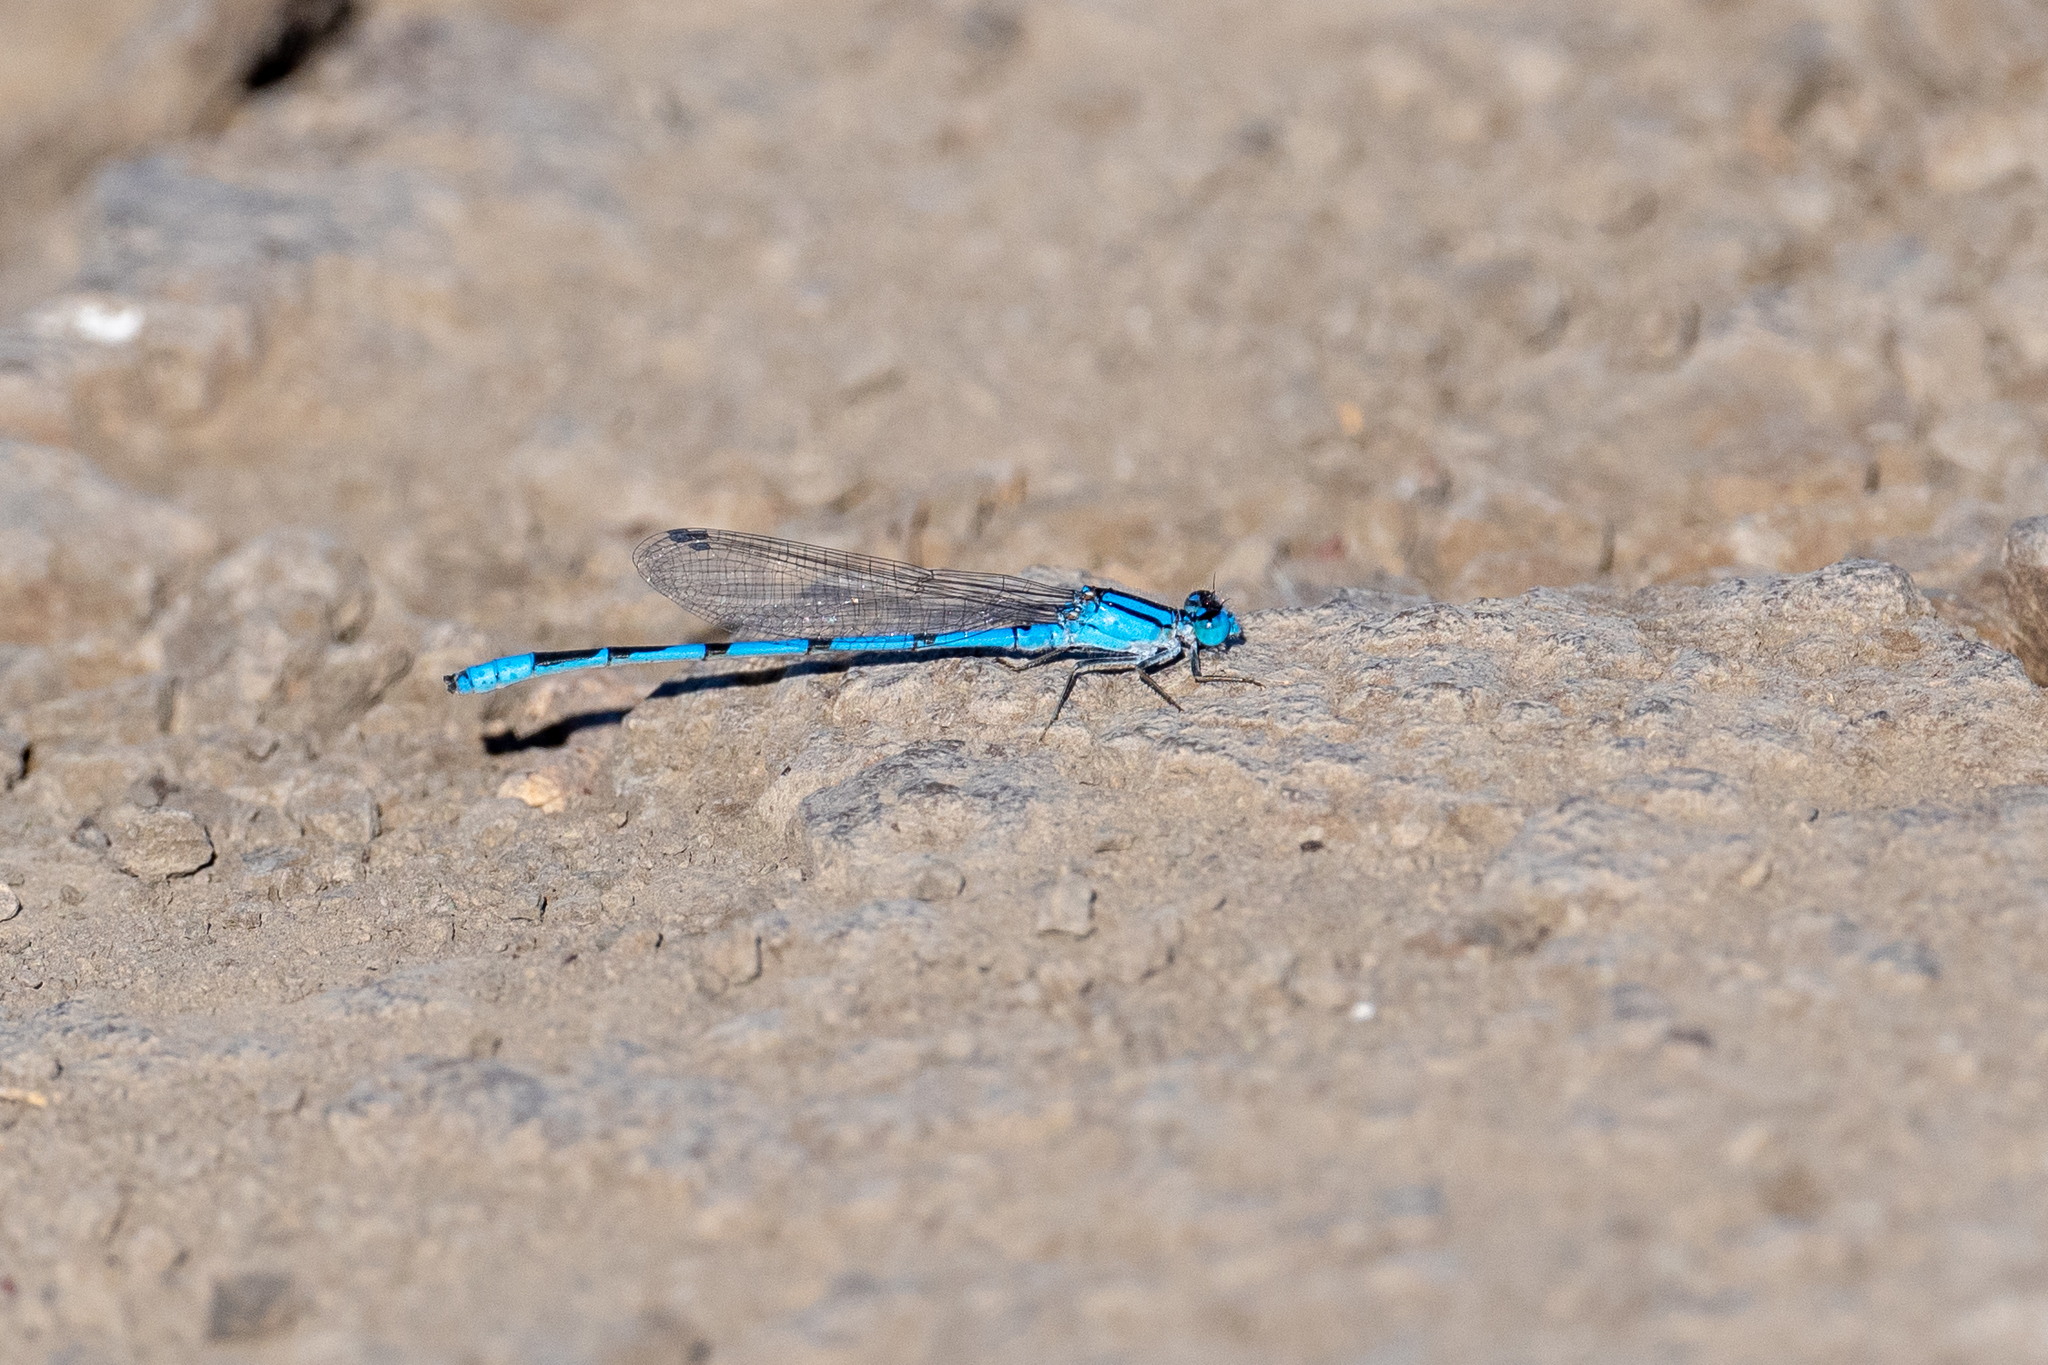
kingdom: Animalia
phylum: Arthropoda
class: Insecta
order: Odonata
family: Coenagrionidae
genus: Enallagma
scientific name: Enallagma civile
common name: Damselfly
